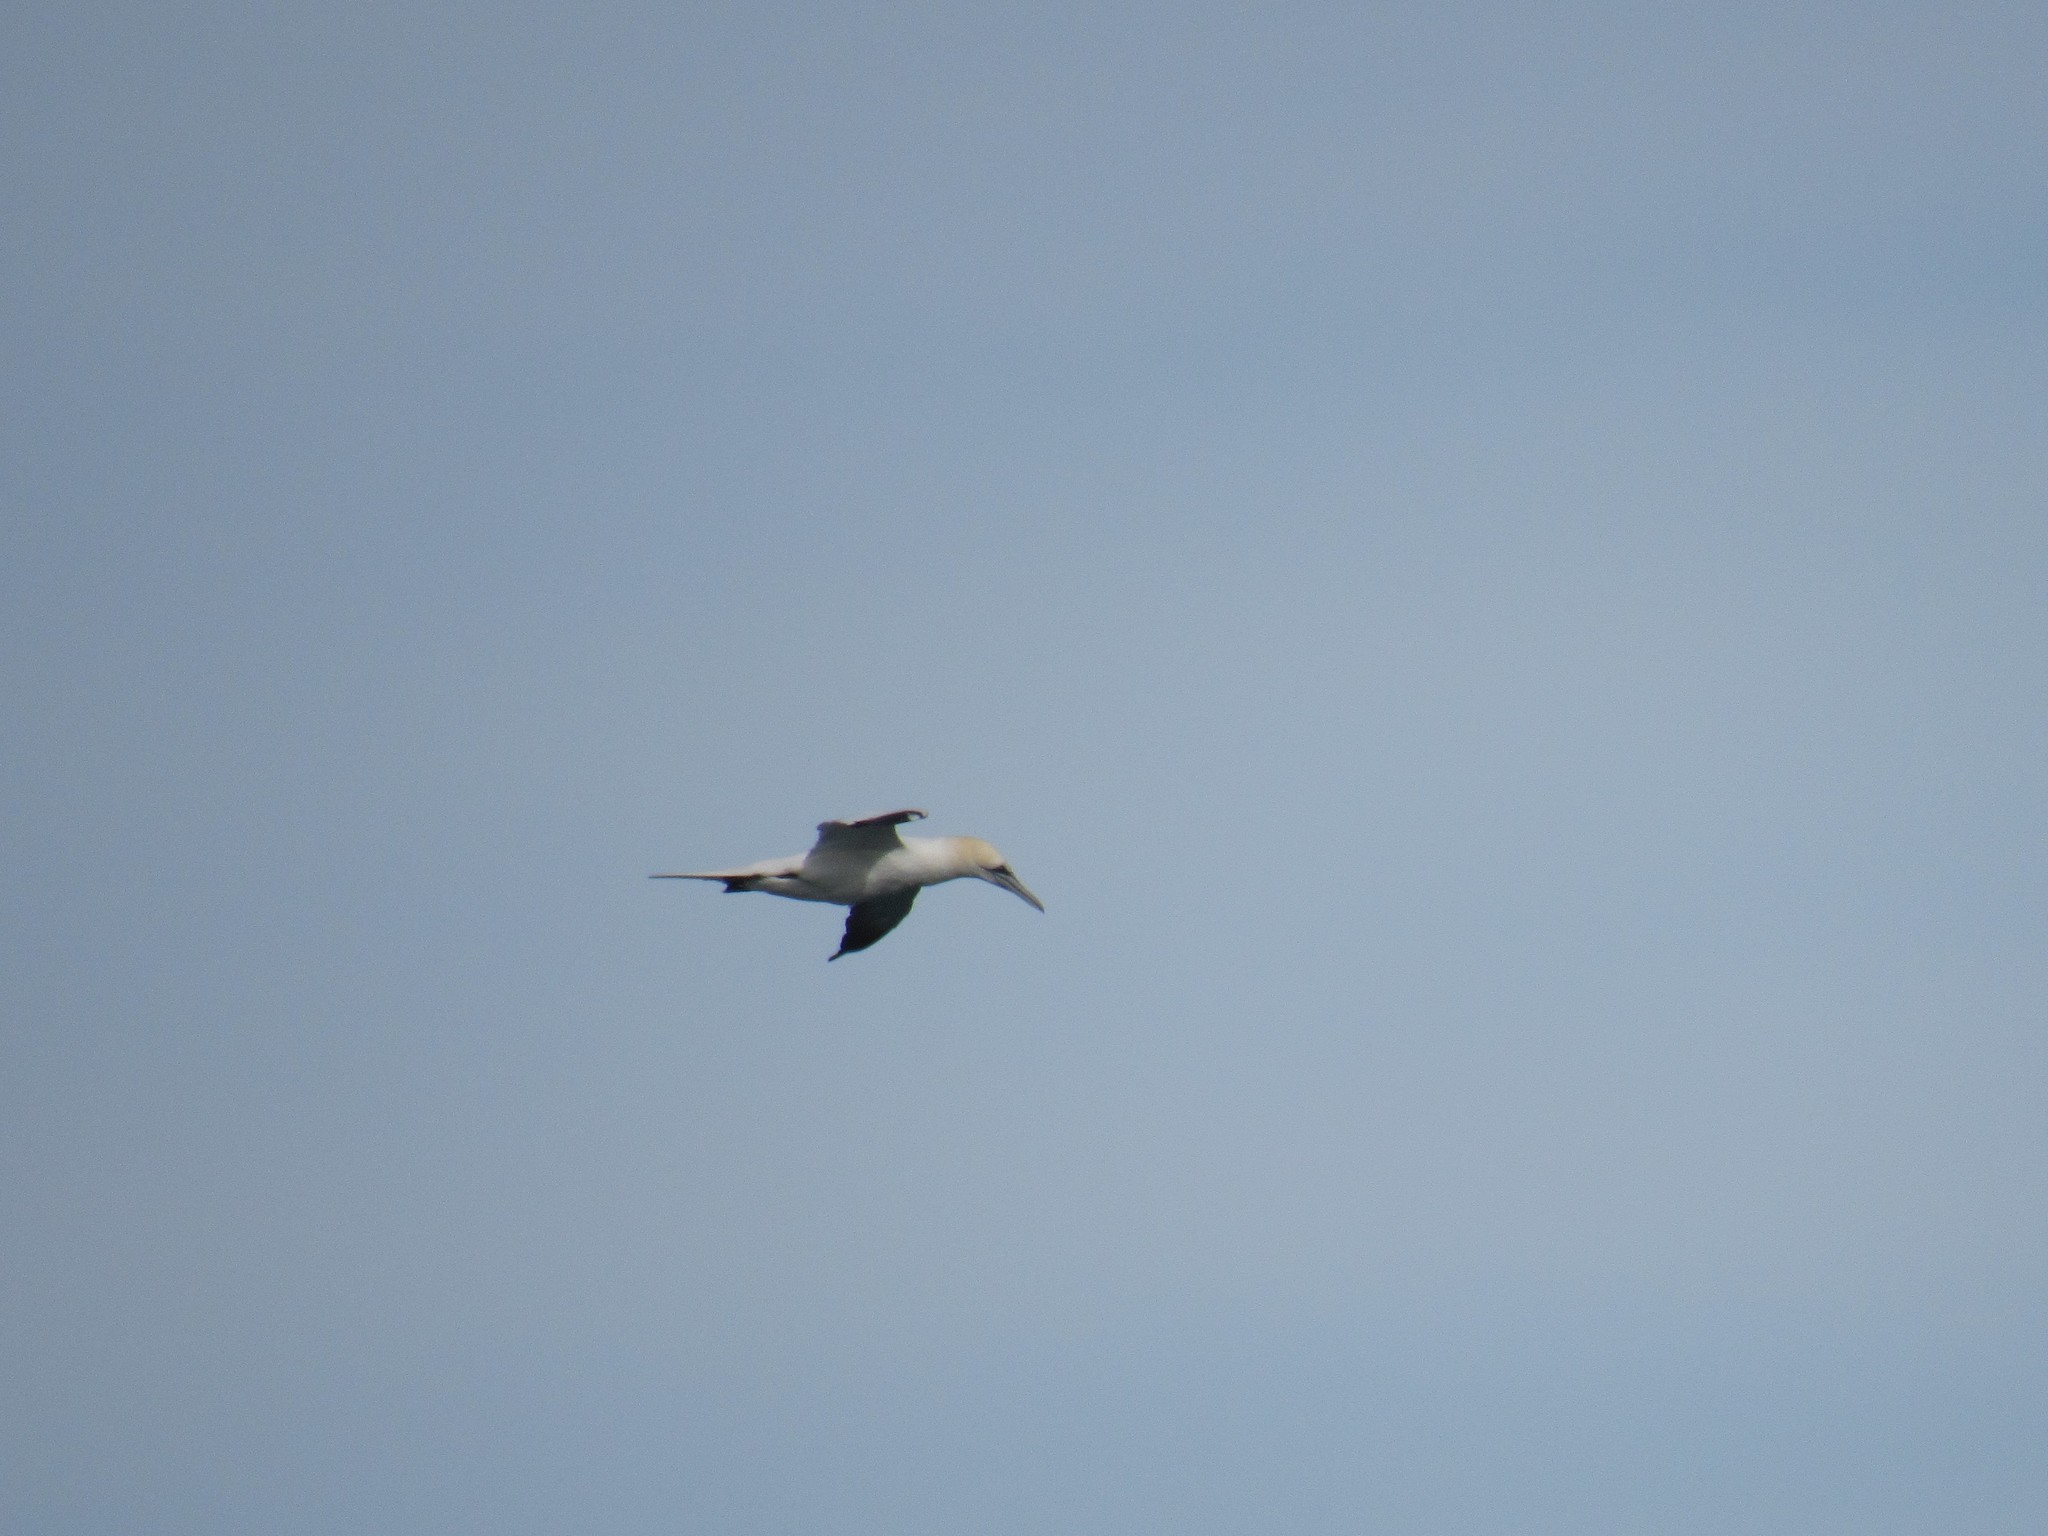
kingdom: Animalia
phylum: Chordata
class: Aves
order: Suliformes
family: Sulidae
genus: Morus
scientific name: Morus bassanus
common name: Northern gannet
